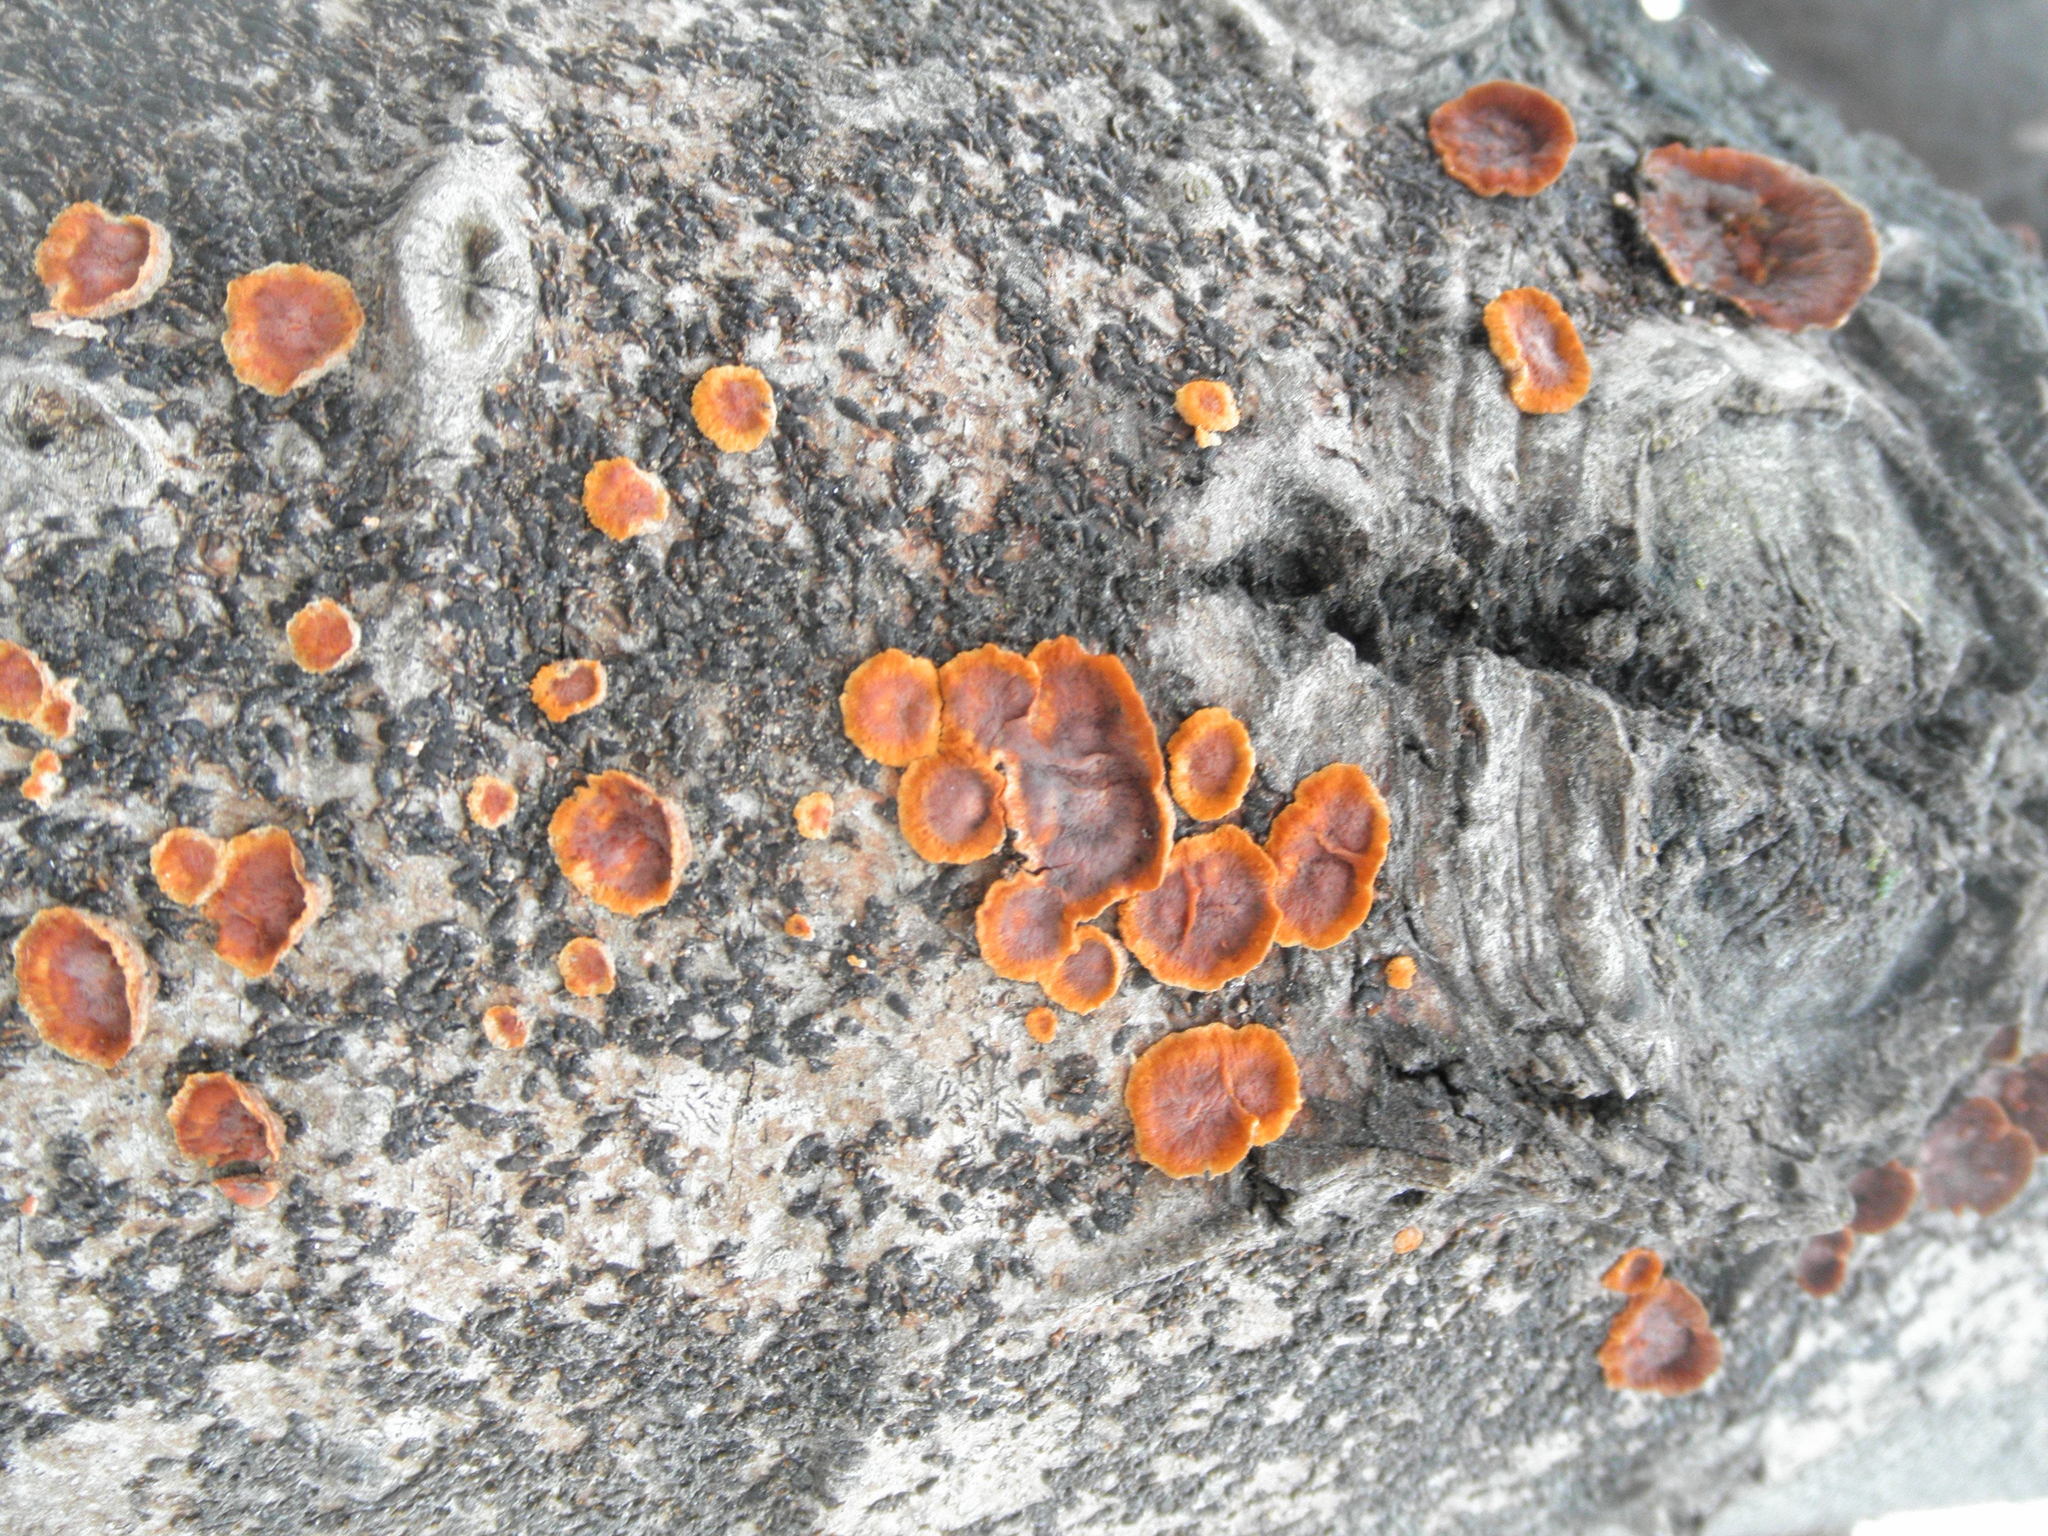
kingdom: Fungi
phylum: Basidiomycota
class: Agaricomycetes
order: Polyporales
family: Meruliaceae
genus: Phlebia
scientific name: Phlebia radiata
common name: Wrinkled crust
